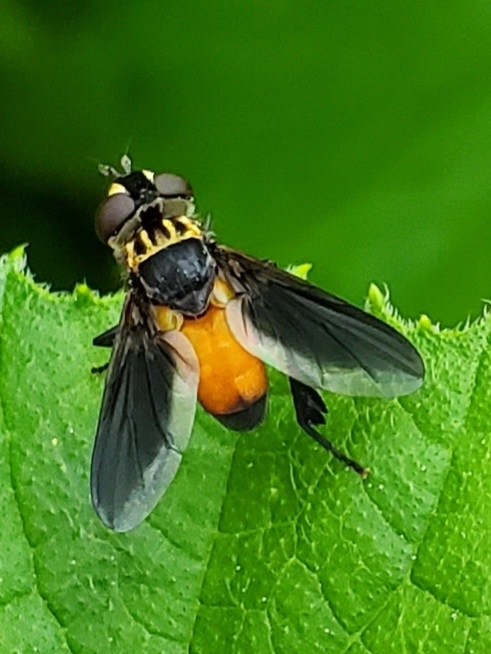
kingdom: Animalia
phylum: Arthropoda
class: Insecta
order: Diptera
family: Tachinidae
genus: Trichopoda
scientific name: Trichopoda pennipes
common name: Tachinid fly
